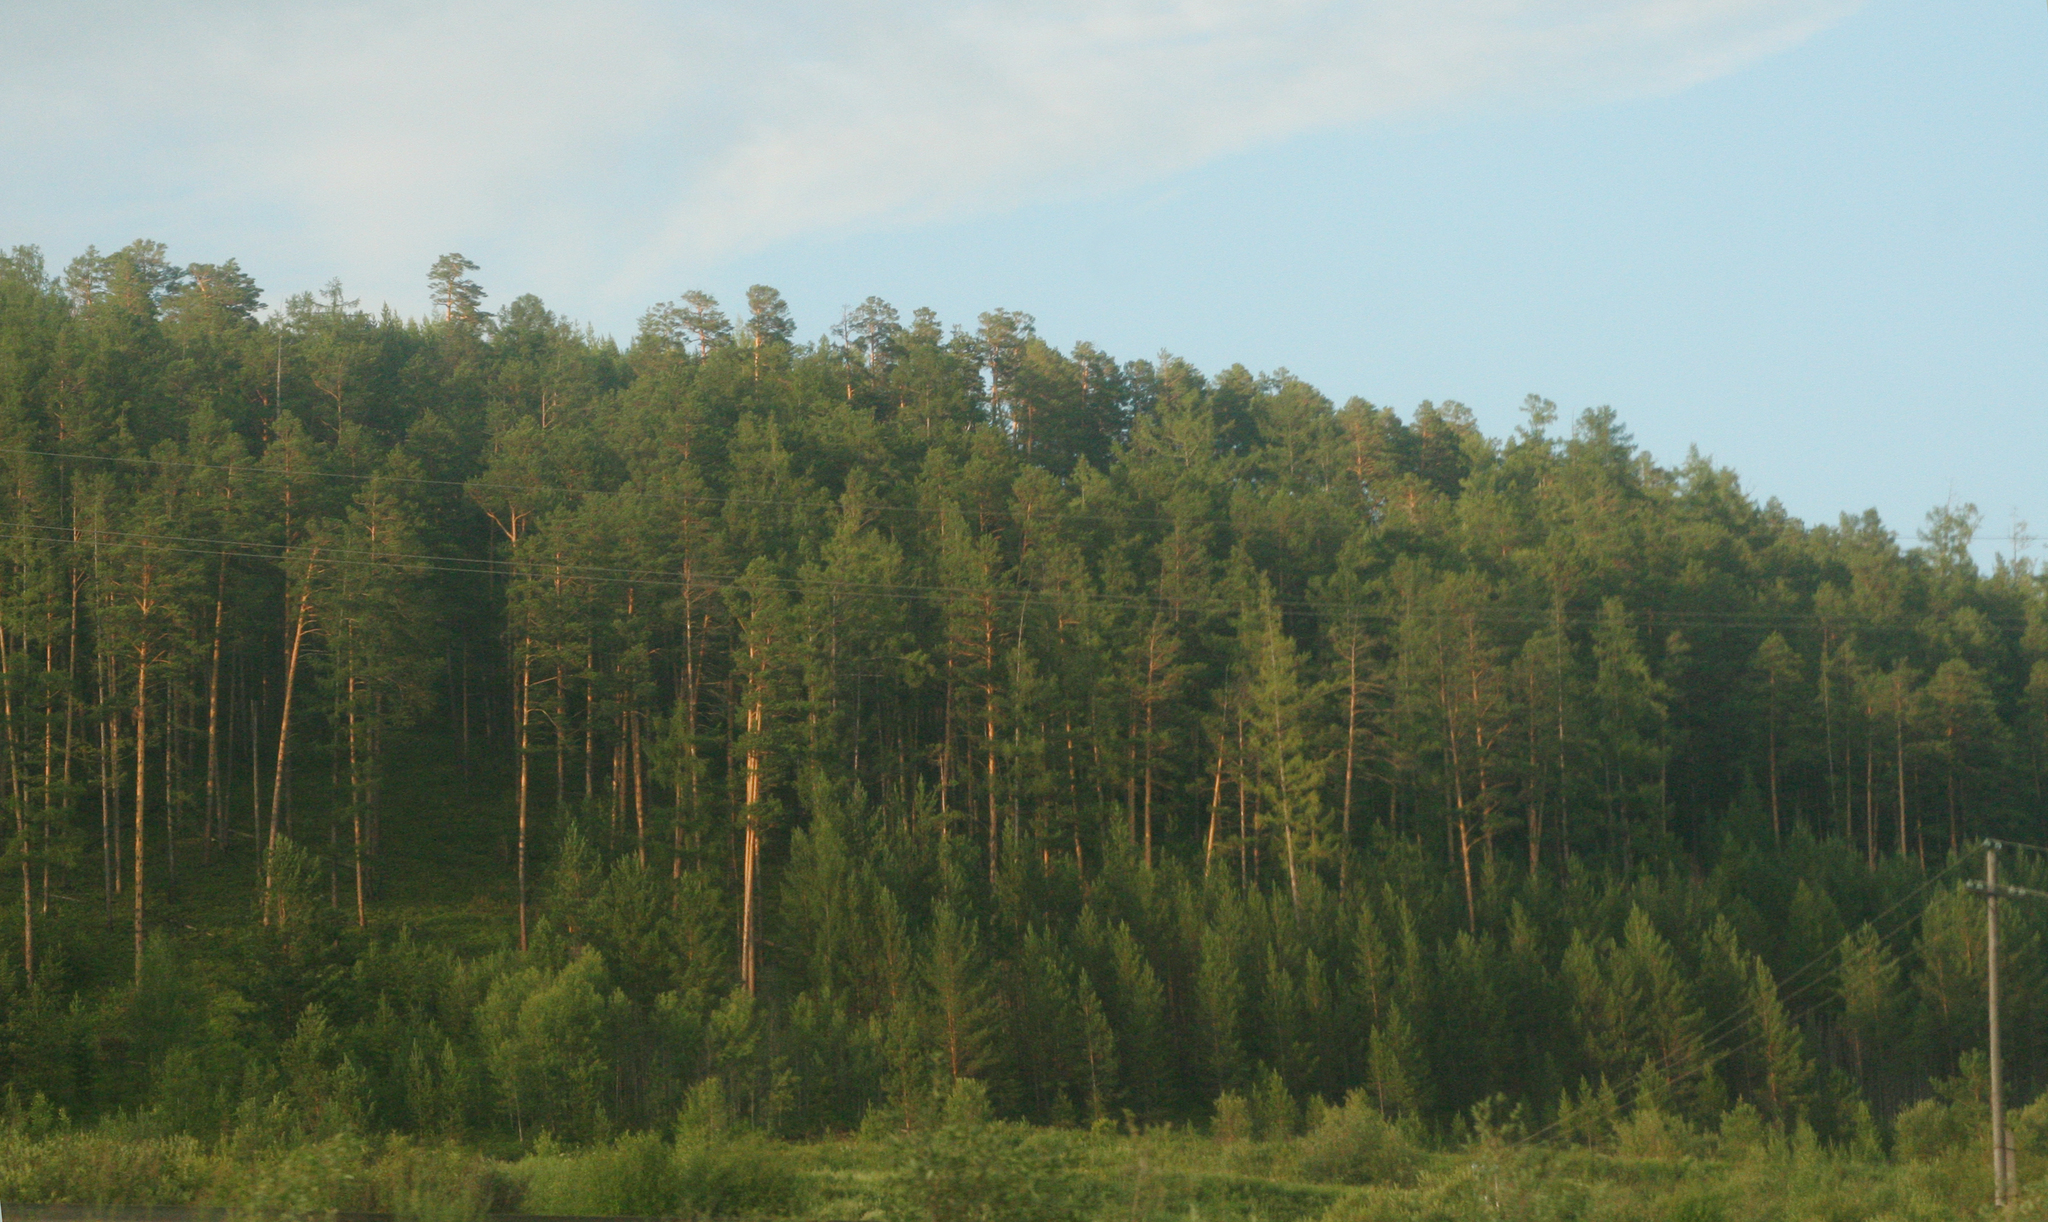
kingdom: Plantae
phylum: Tracheophyta
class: Pinopsida
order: Pinales
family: Pinaceae
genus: Pinus
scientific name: Pinus sylvestris
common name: Scots pine
